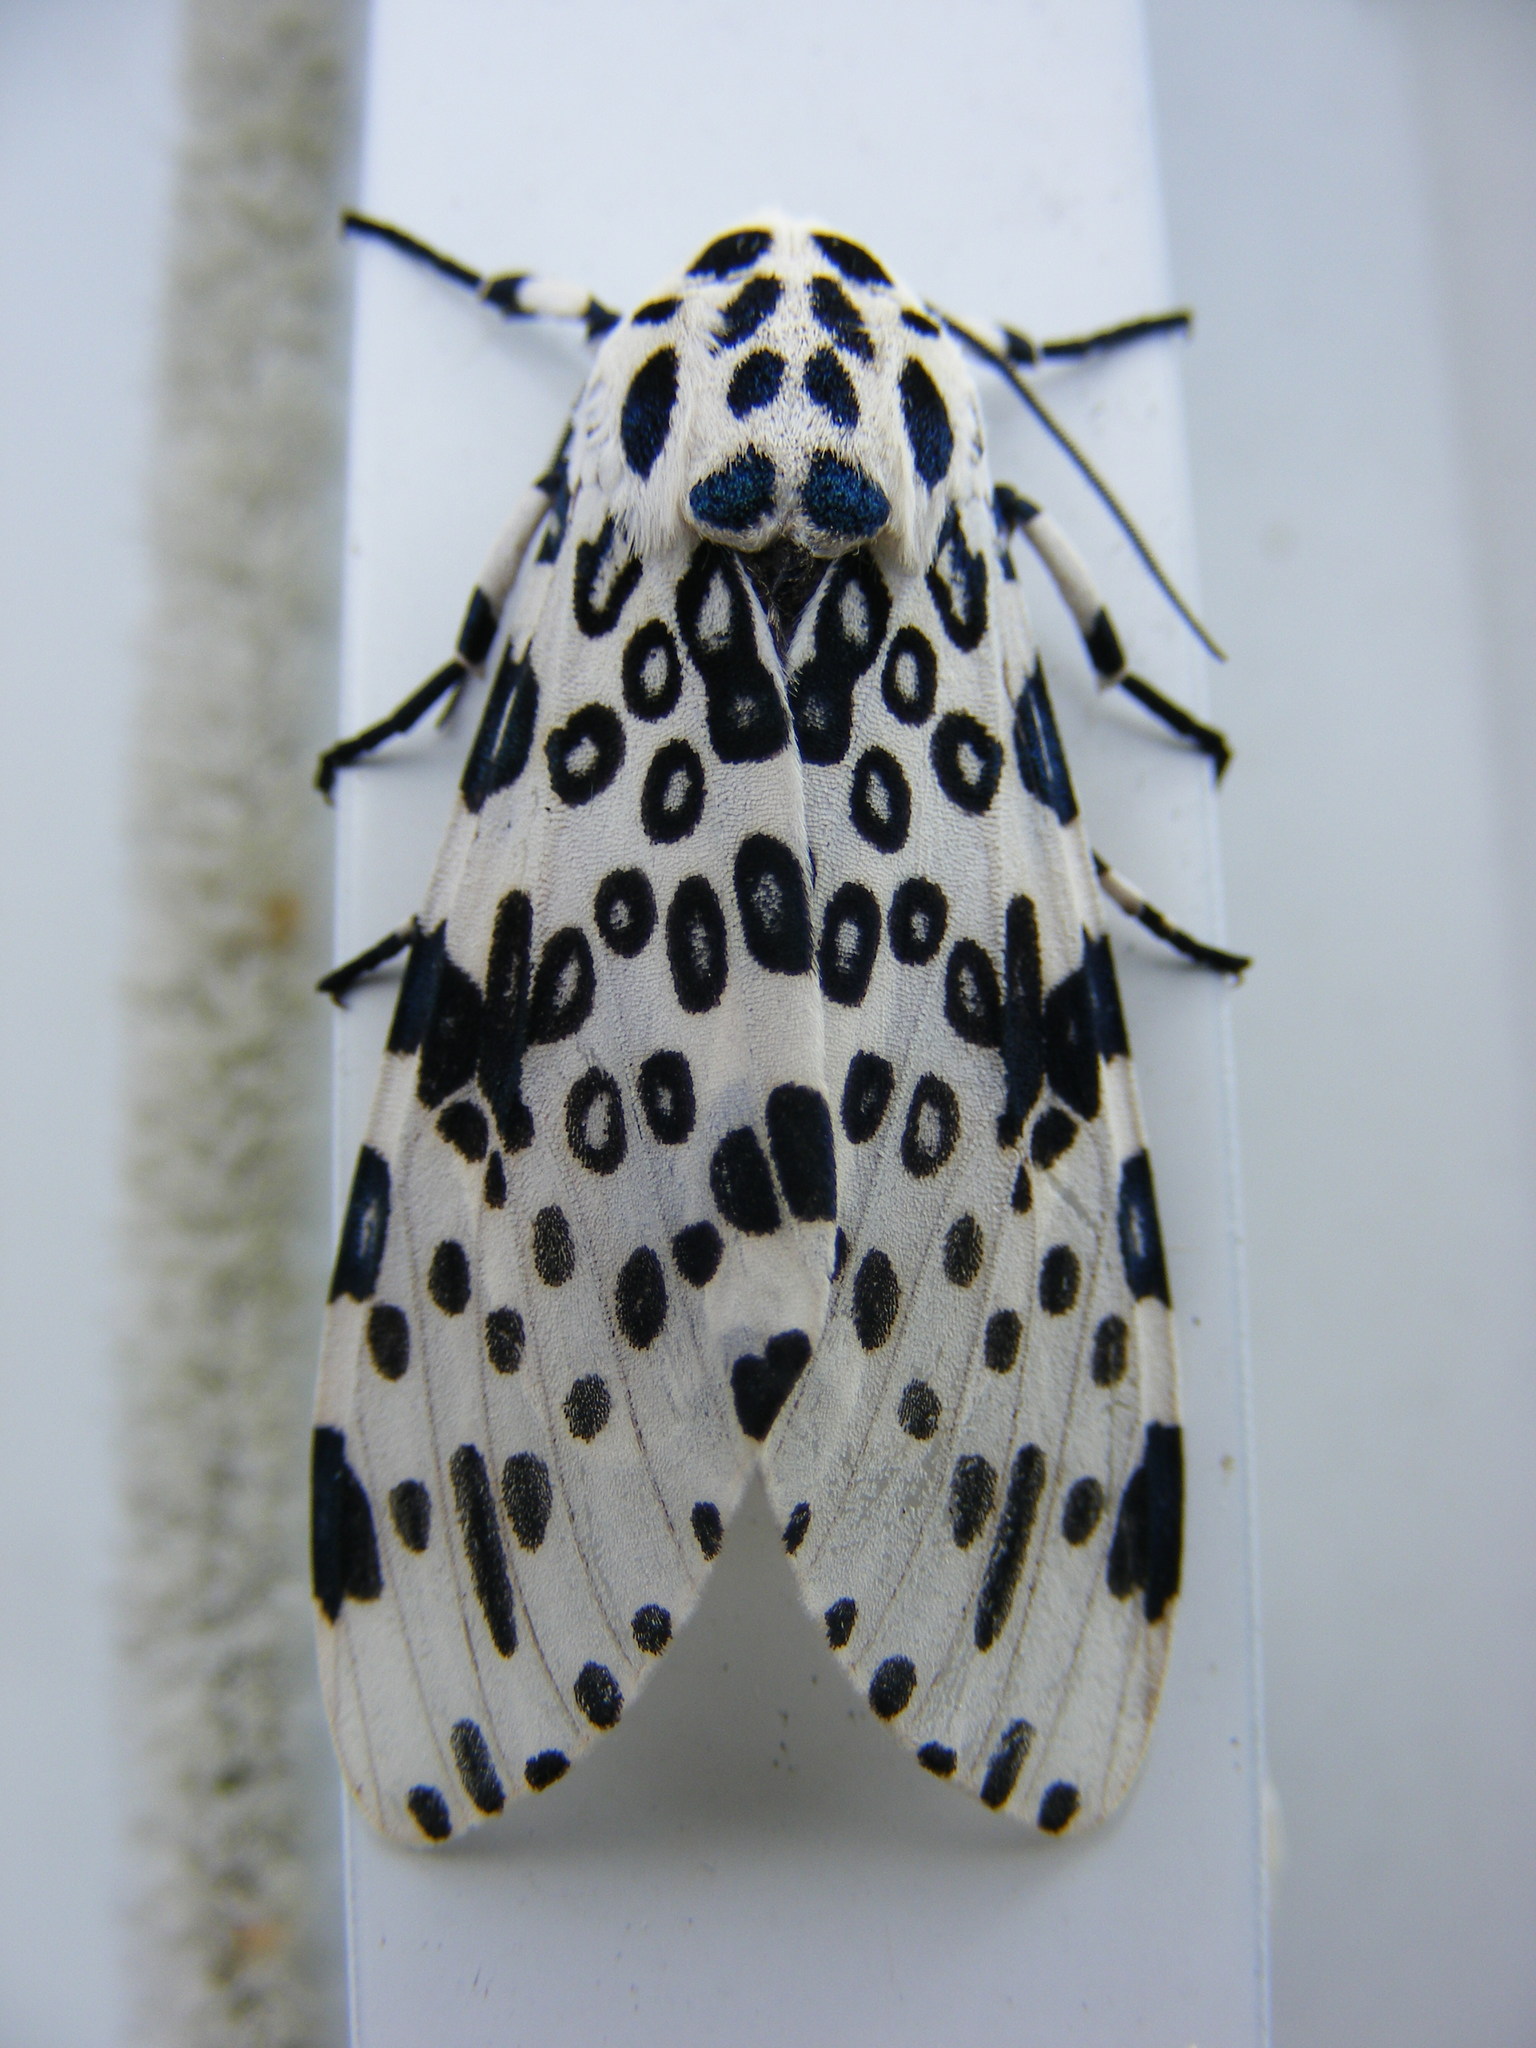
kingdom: Animalia
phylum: Arthropoda
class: Insecta
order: Lepidoptera
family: Erebidae
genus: Hypercompe
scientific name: Hypercompe scribonia
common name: Giant leopard moth
